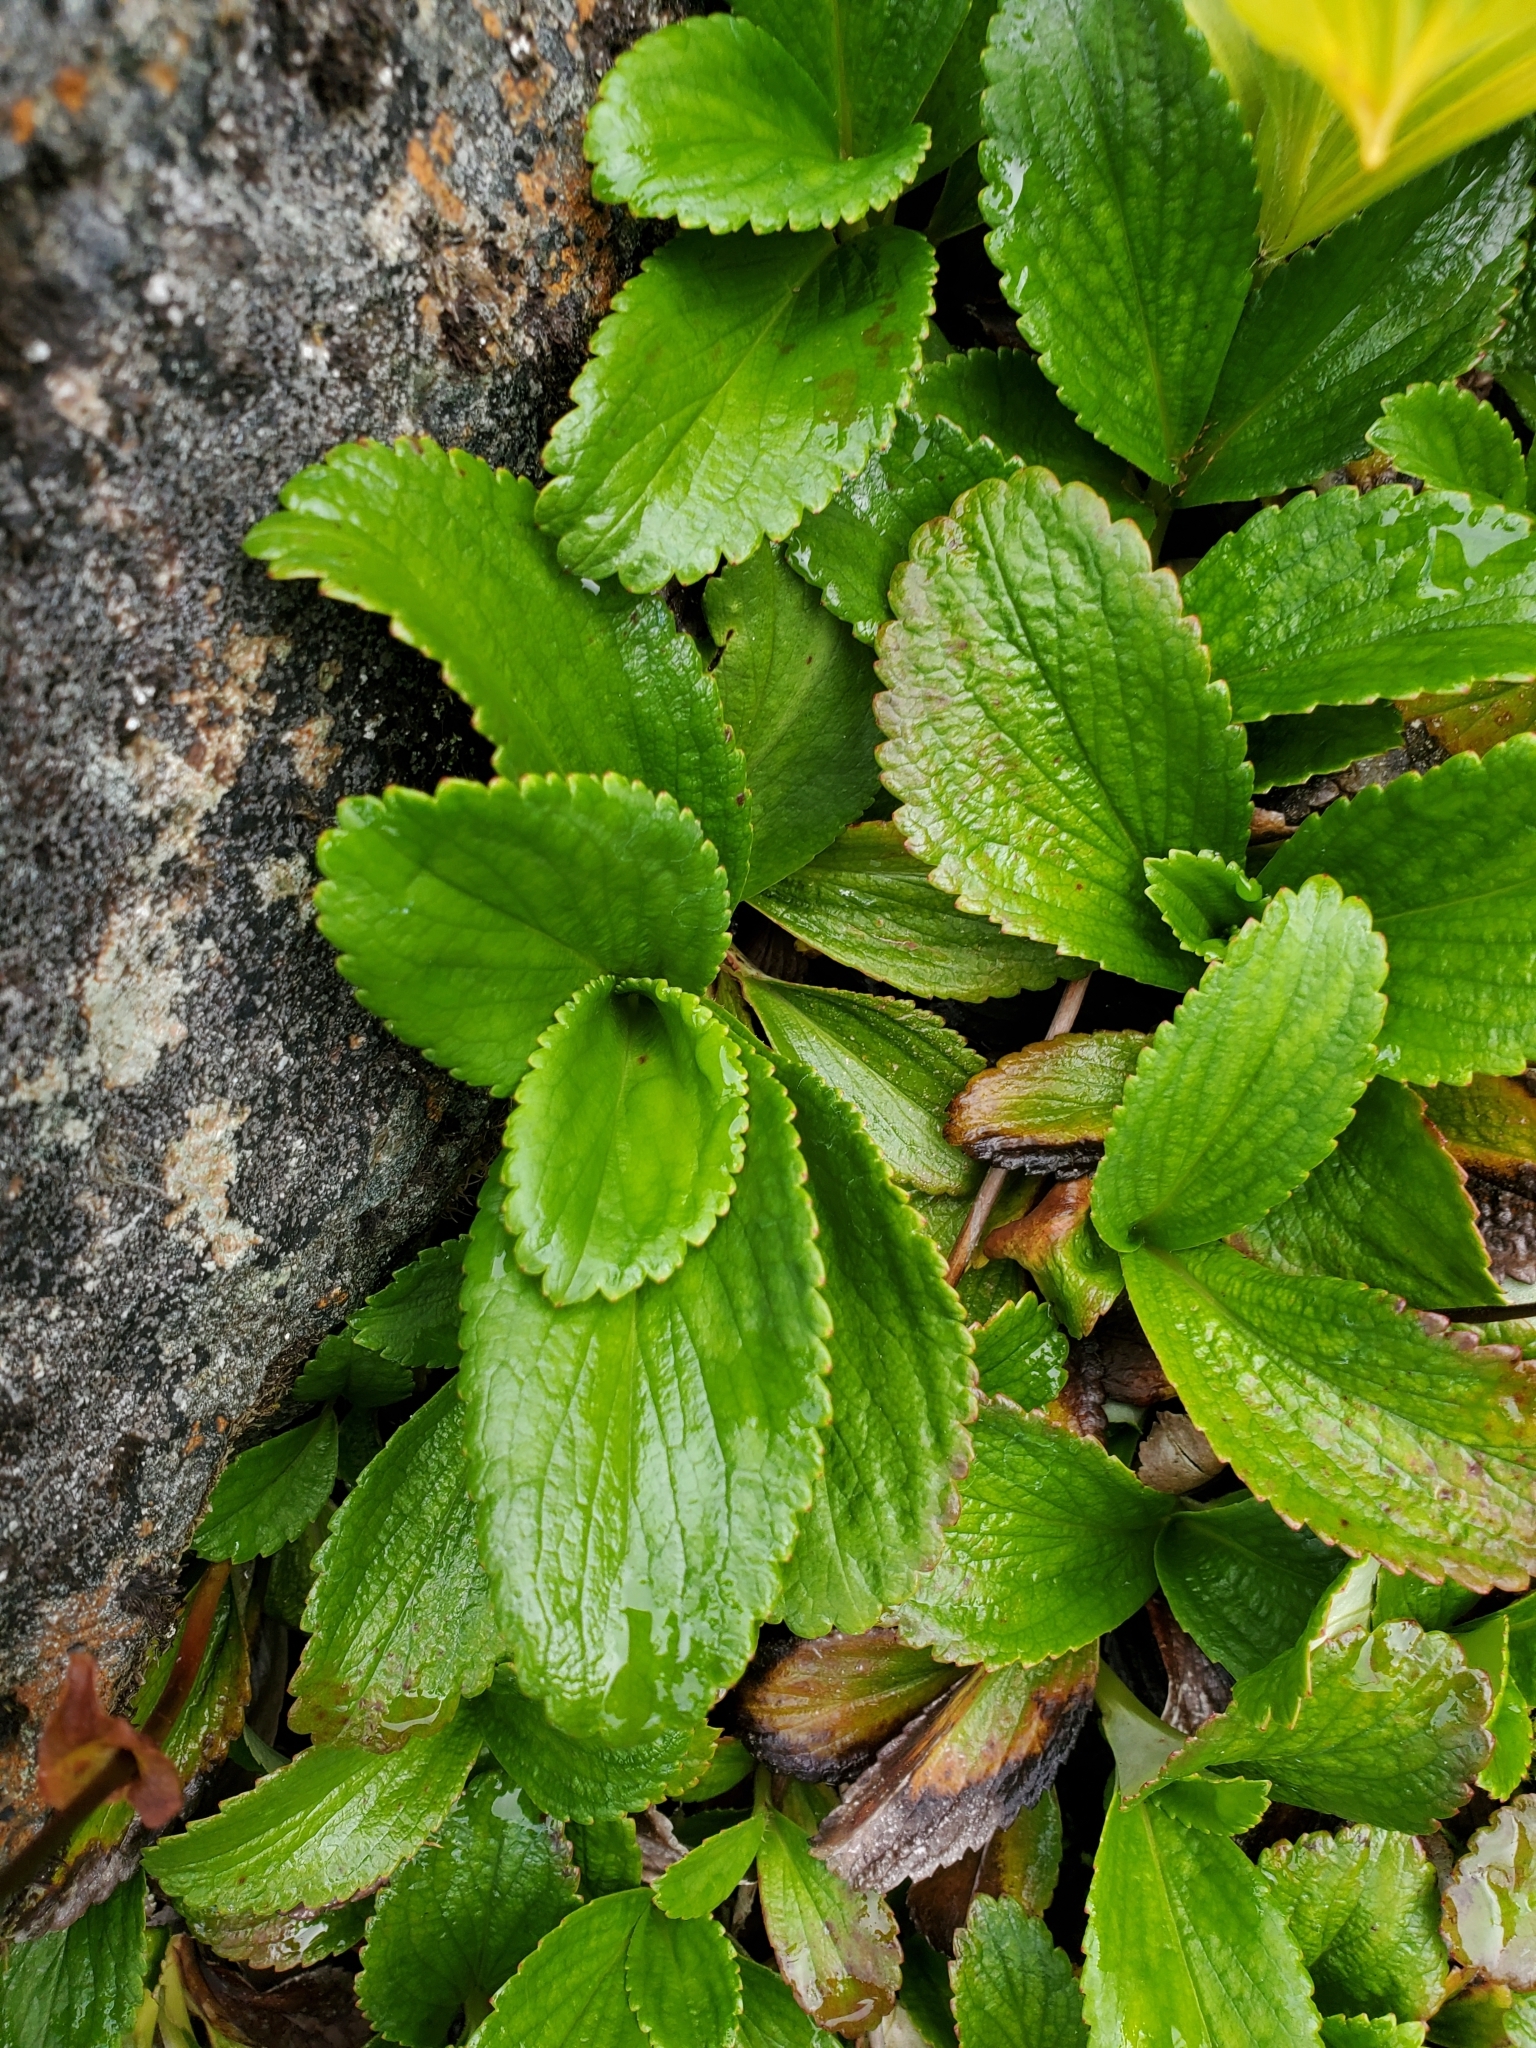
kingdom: Plantae
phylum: Tracheophyta
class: Magnoliopsida
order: Saxifragales
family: Saxifragaceae
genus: Leptarrhena
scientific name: Leptarrhena pyrolifolia
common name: Leatherleaf-saxifrage
